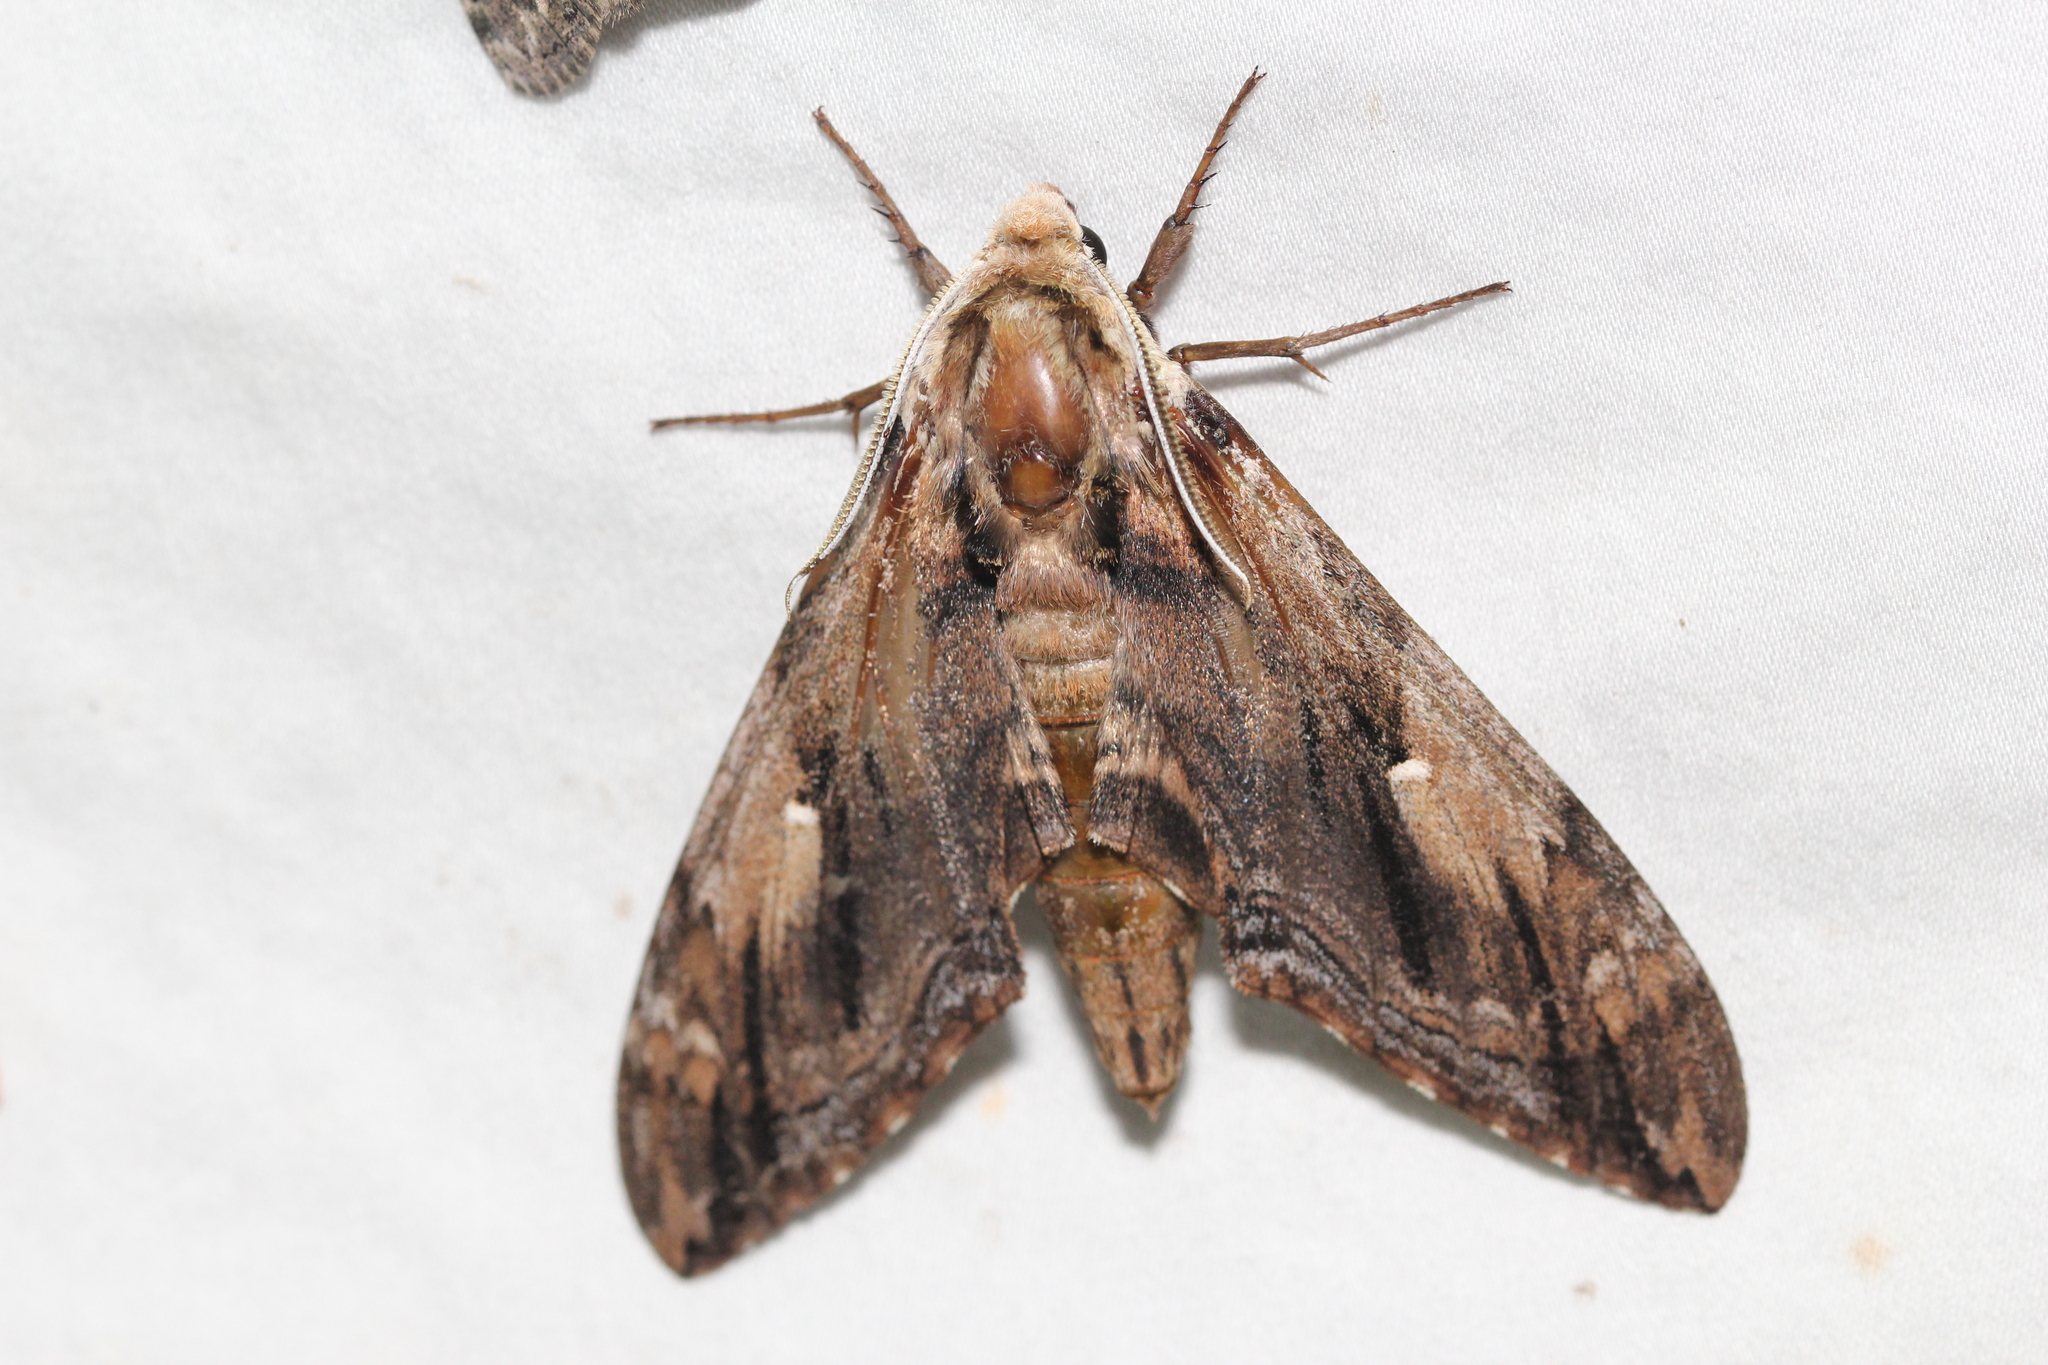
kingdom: Animalia
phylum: Arthropoda
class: Insecta
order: Lepidoptera
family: Sphingidae
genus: Ceratomia
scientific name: Ceratomia amyntor
